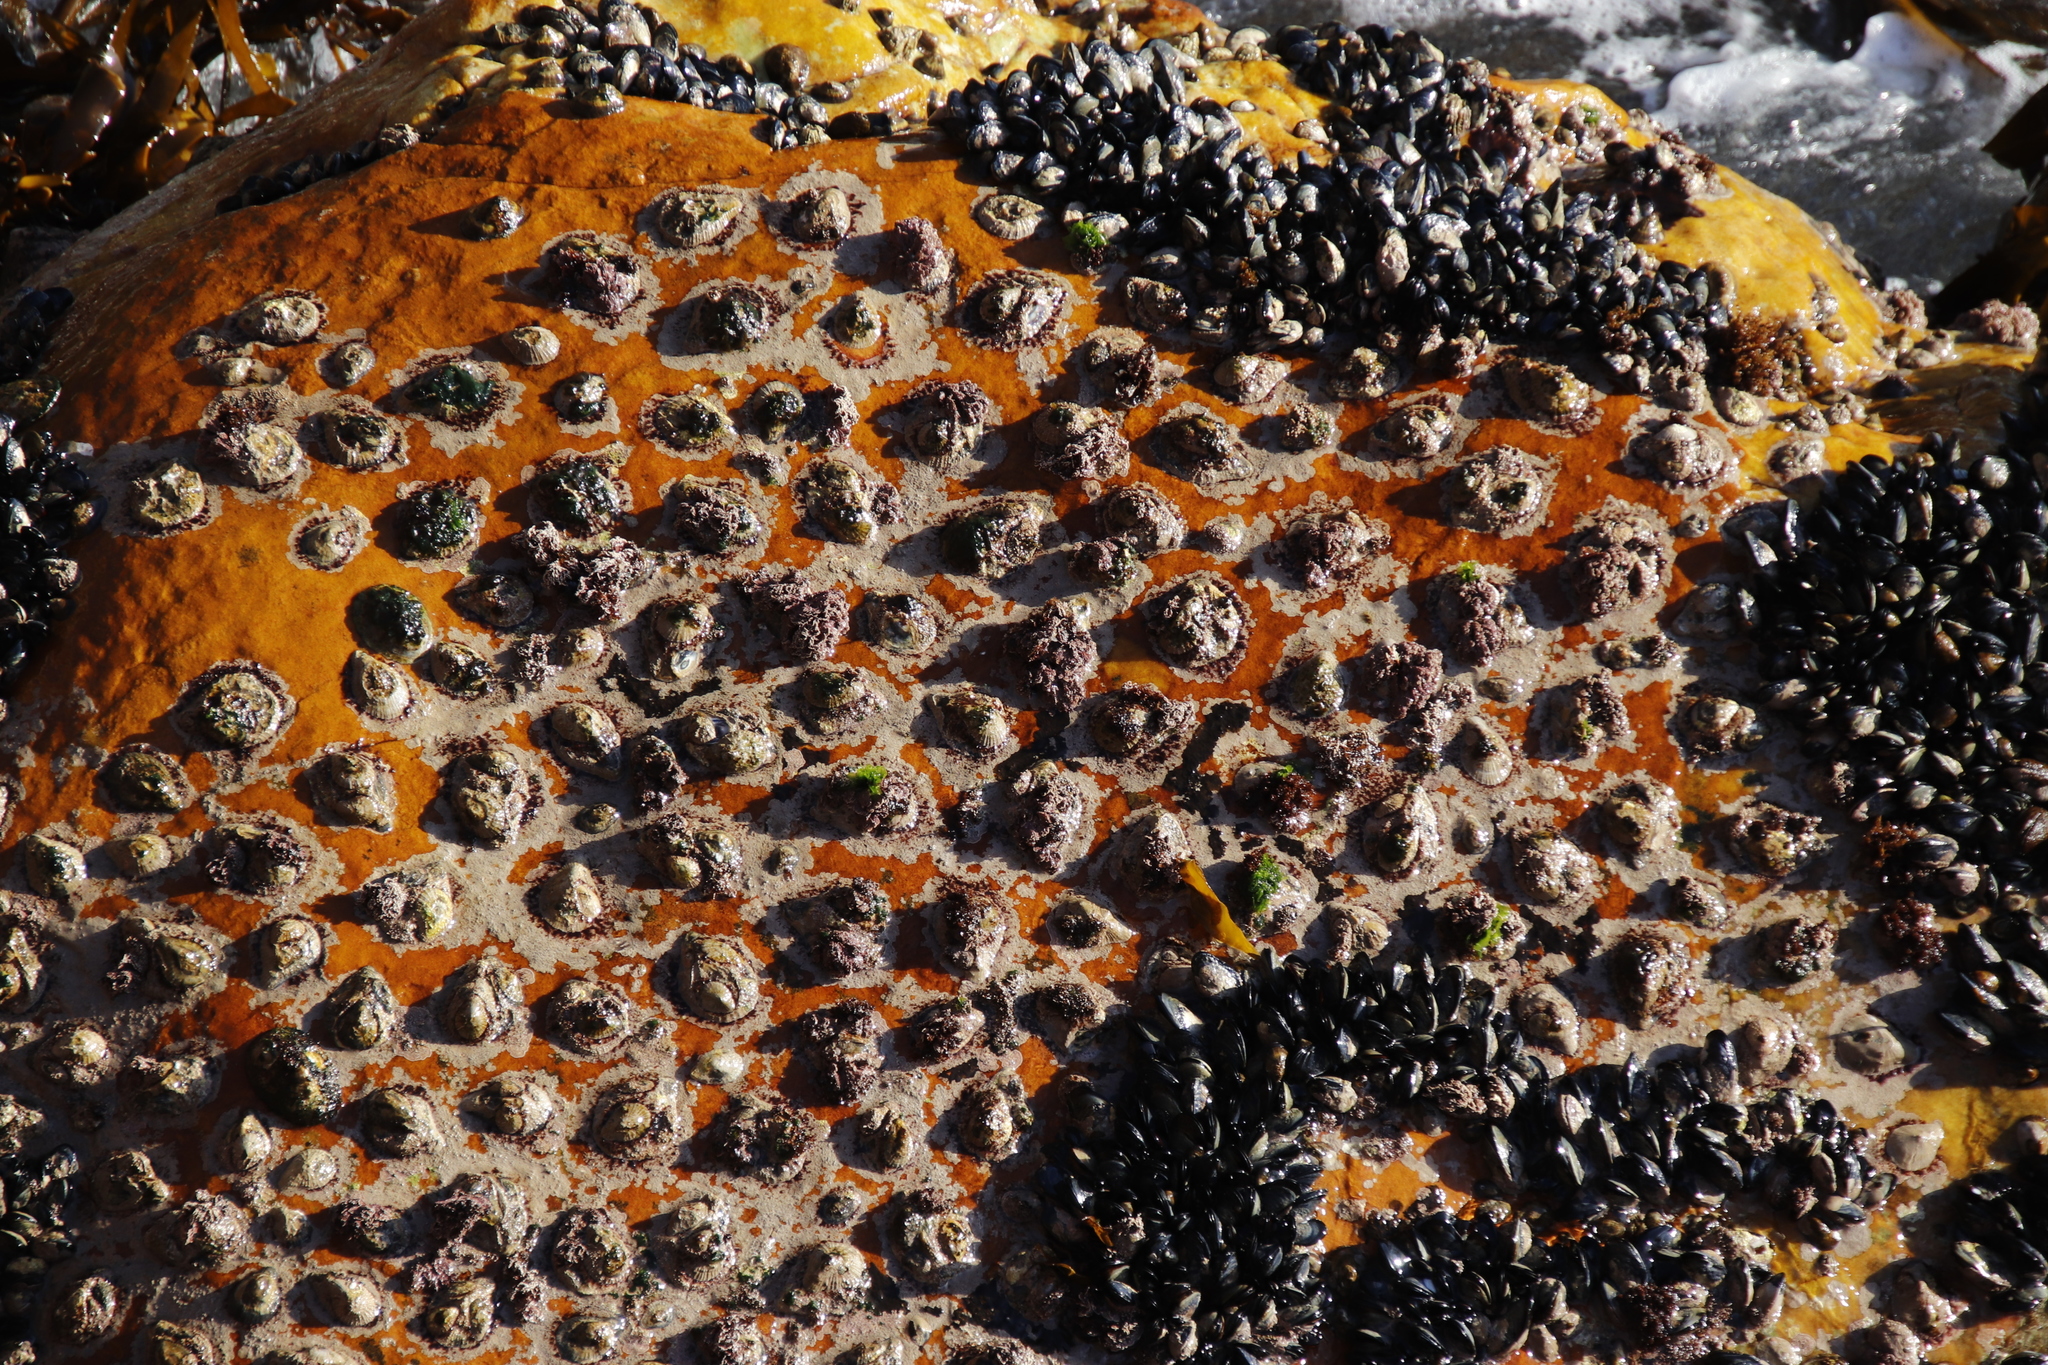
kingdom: Animalia
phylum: Mollusca
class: Gastropoda
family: Patellidae
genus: Scutellastra
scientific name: Scutellastra cochlear
